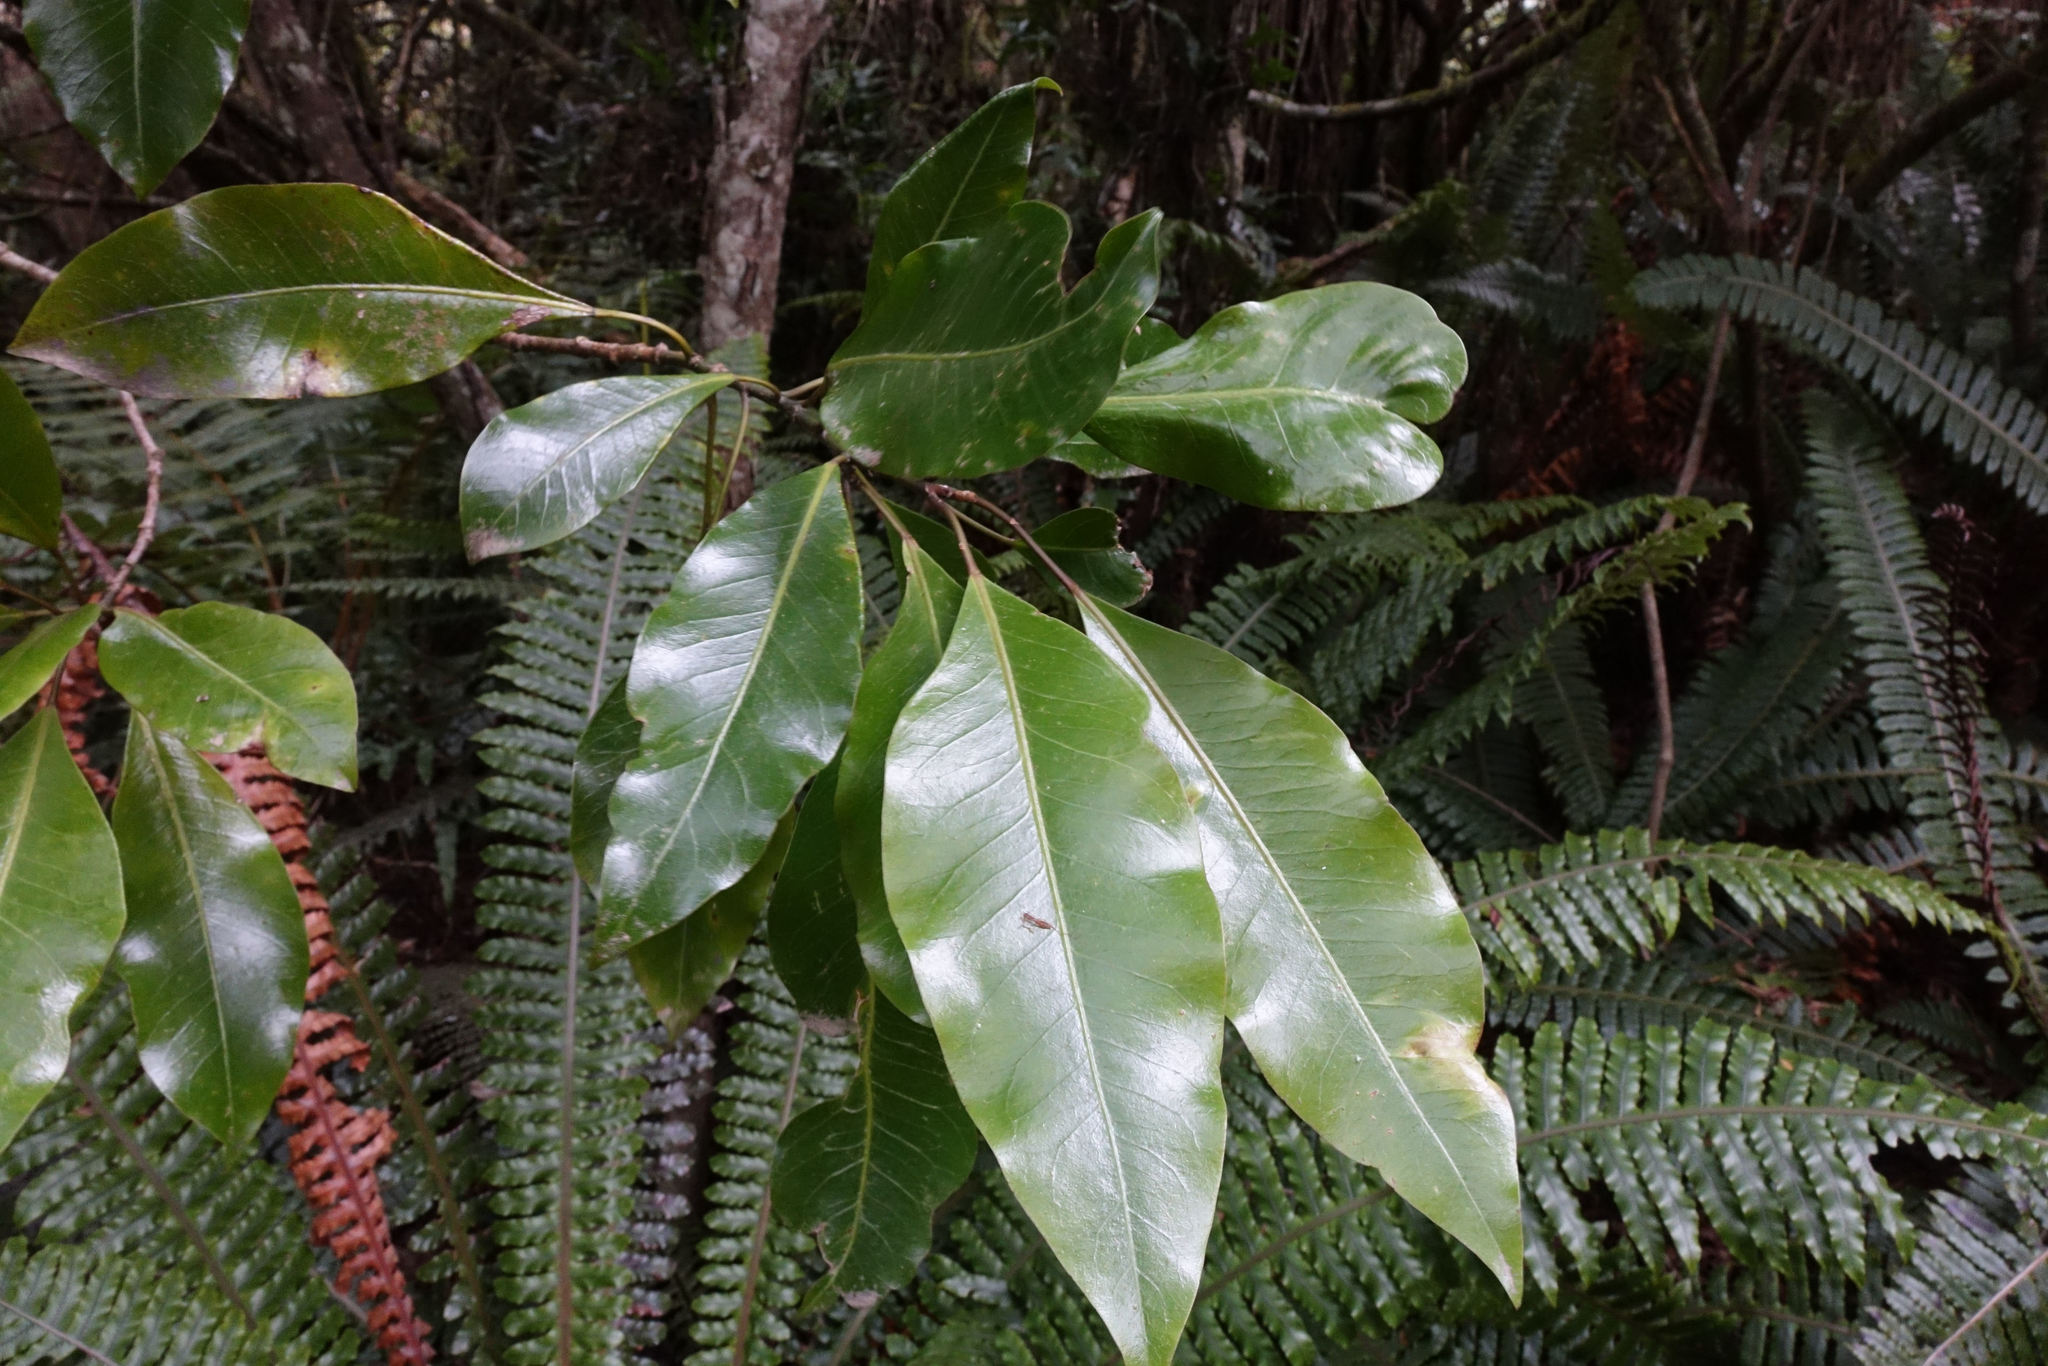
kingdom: Plantae
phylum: Tracheophyta
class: Magnoliopsida
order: Apiales
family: Araliaceae
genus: Raukaua
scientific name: Raukaua edgerleyi
